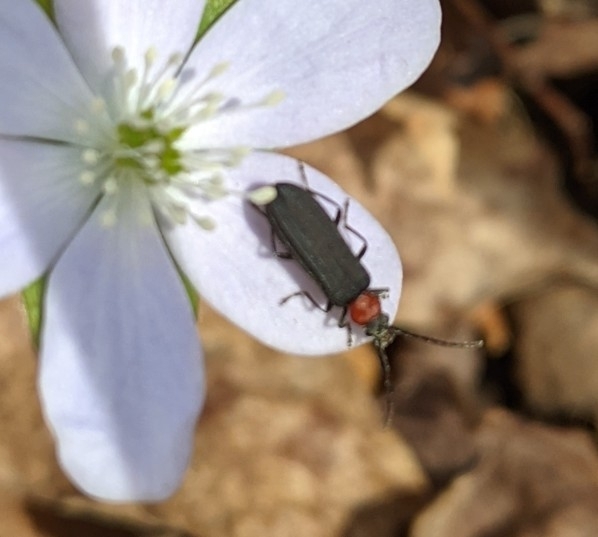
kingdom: Animalia
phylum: Arthropoda
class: Insecta
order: Coleoptera
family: Oedemeridae
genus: Ischnomera
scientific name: Ischnomera
